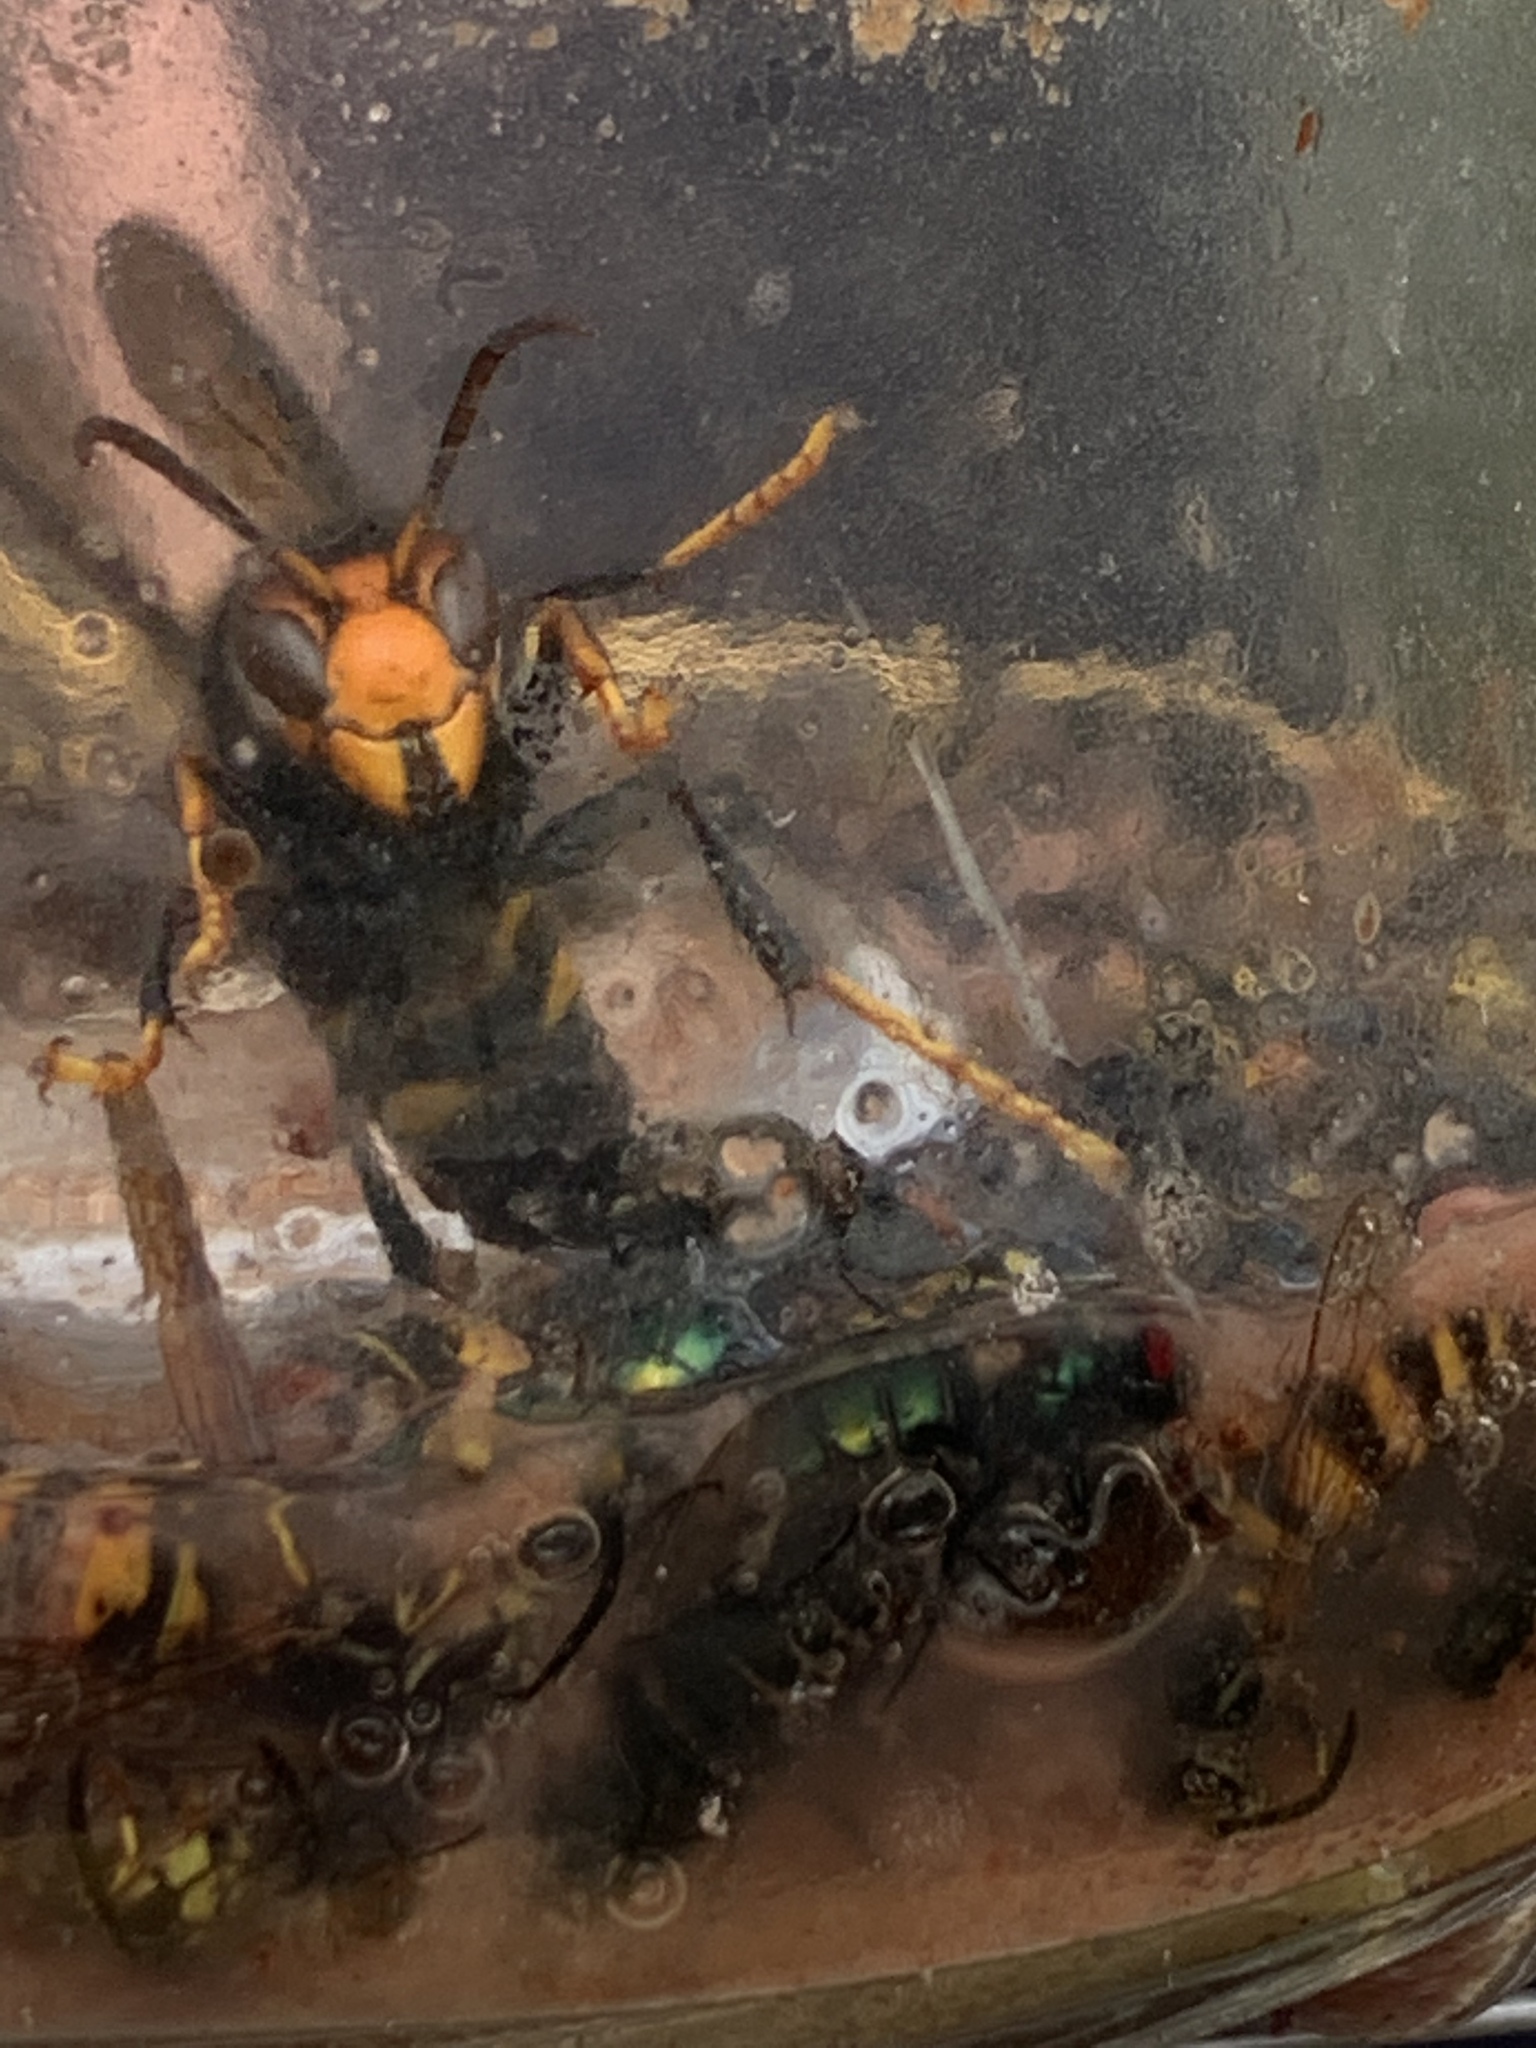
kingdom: Animalia
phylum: Arthropoda
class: Insecta
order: Hymenoptera
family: Vespidae
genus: Vespa
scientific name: Vespa velutina
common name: Asian hornet
